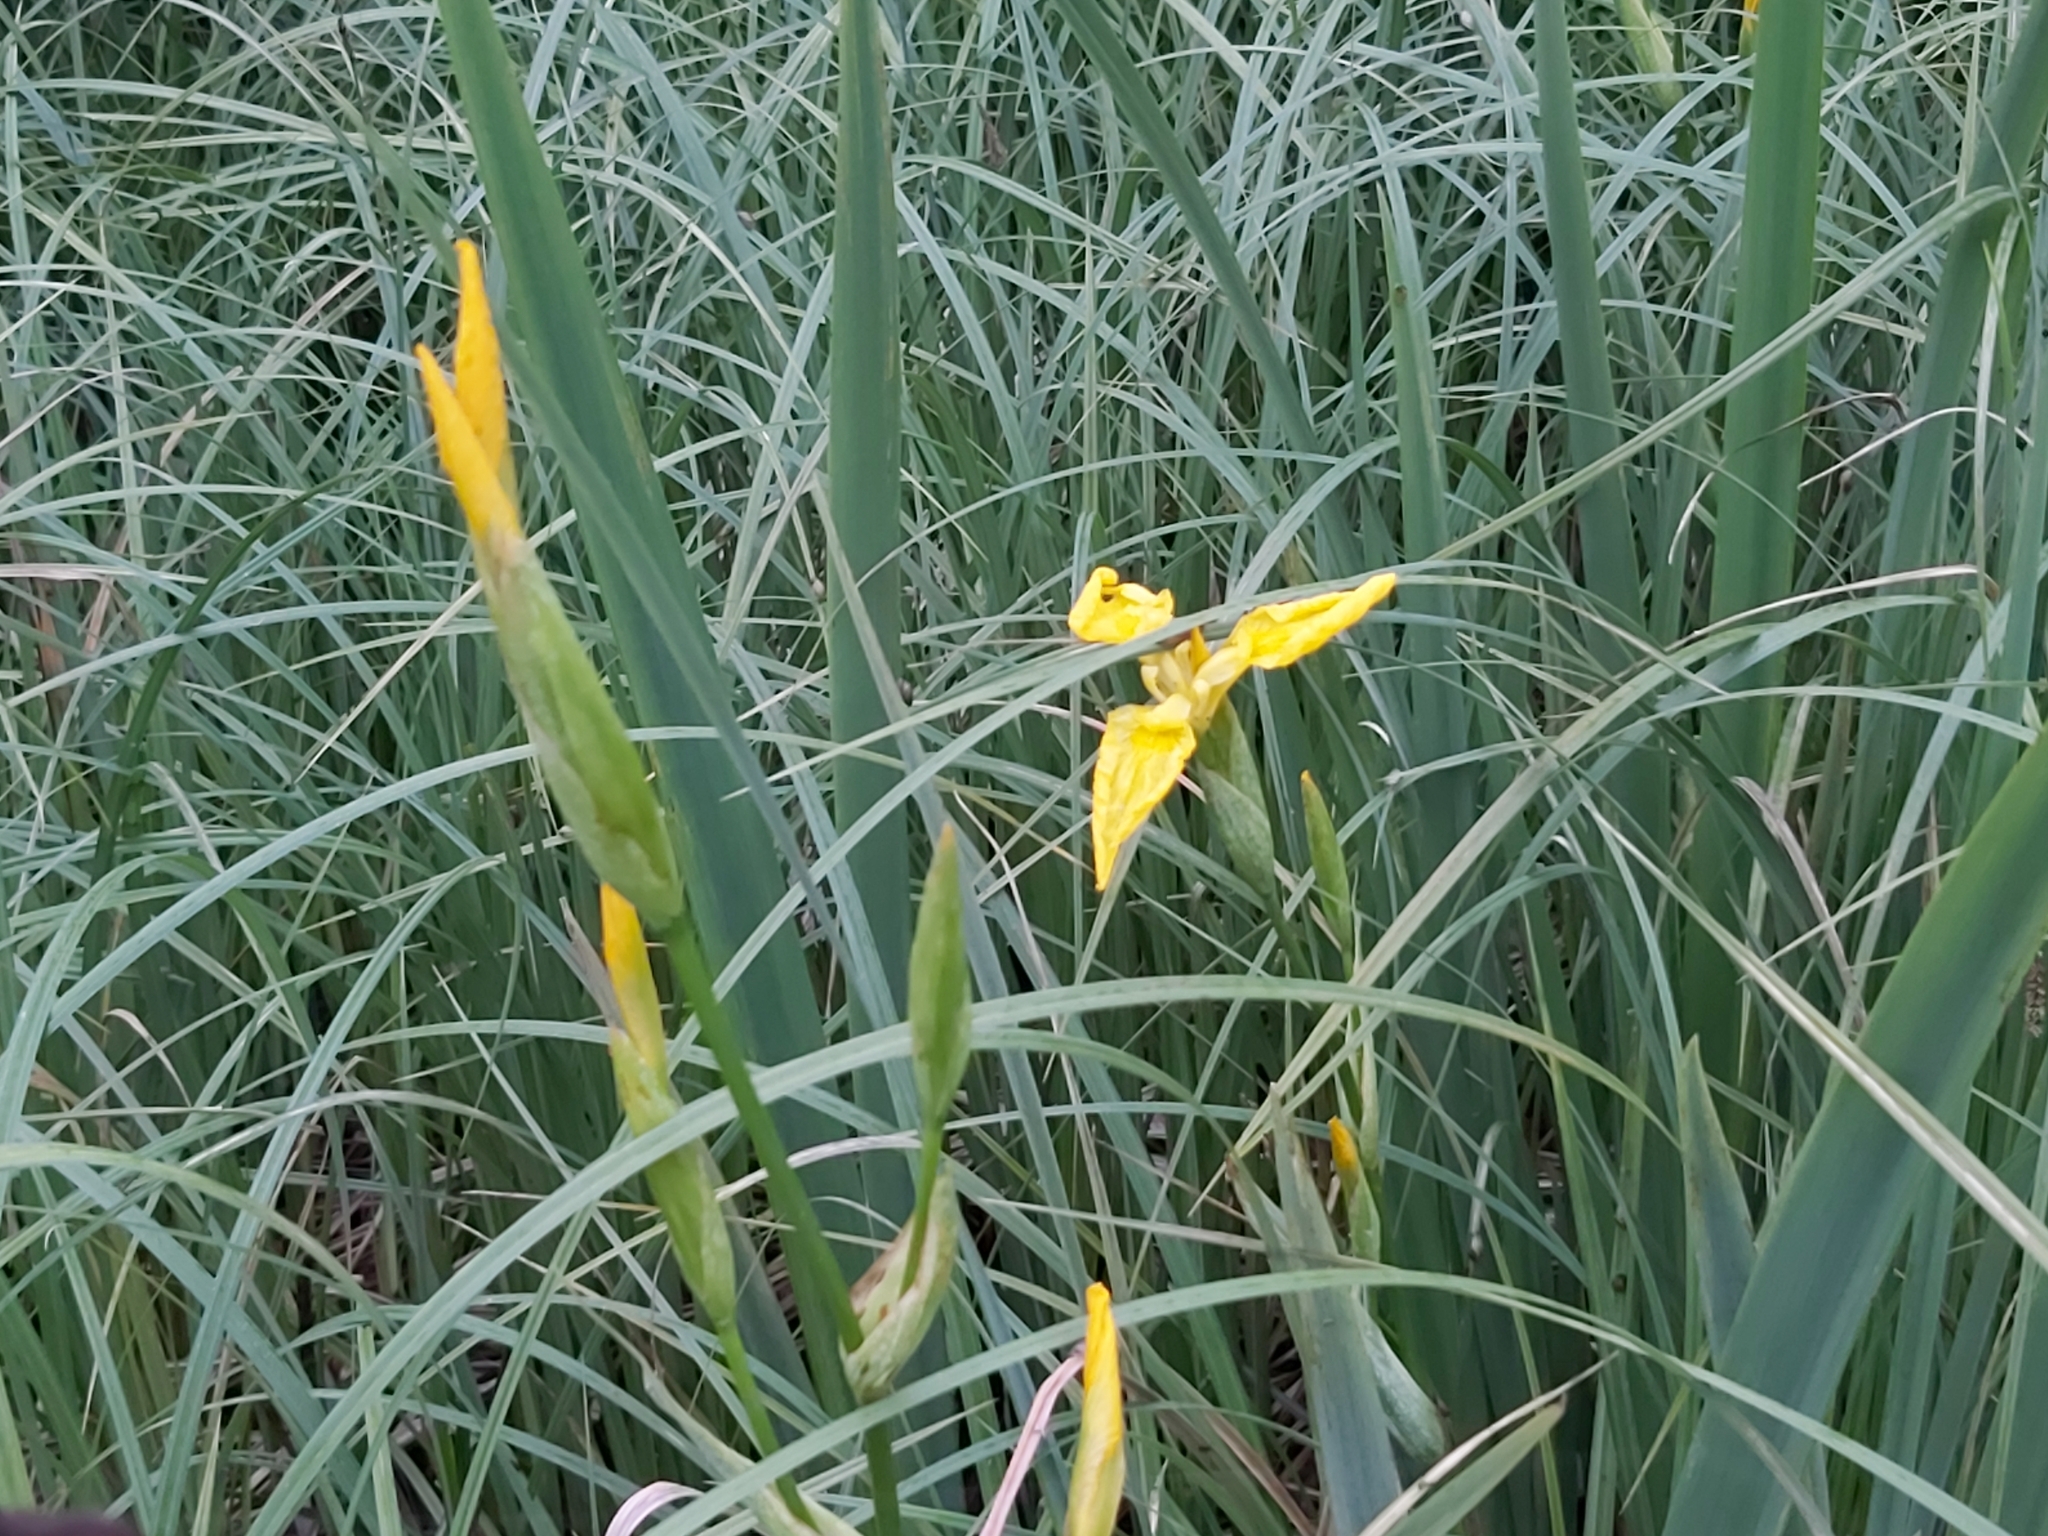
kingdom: Plantae
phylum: Tracheophyta
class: Liliopsida
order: Asparagales
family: Iridaceae
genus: Iris
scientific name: Iris pseudacorus
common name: Yellow flag
